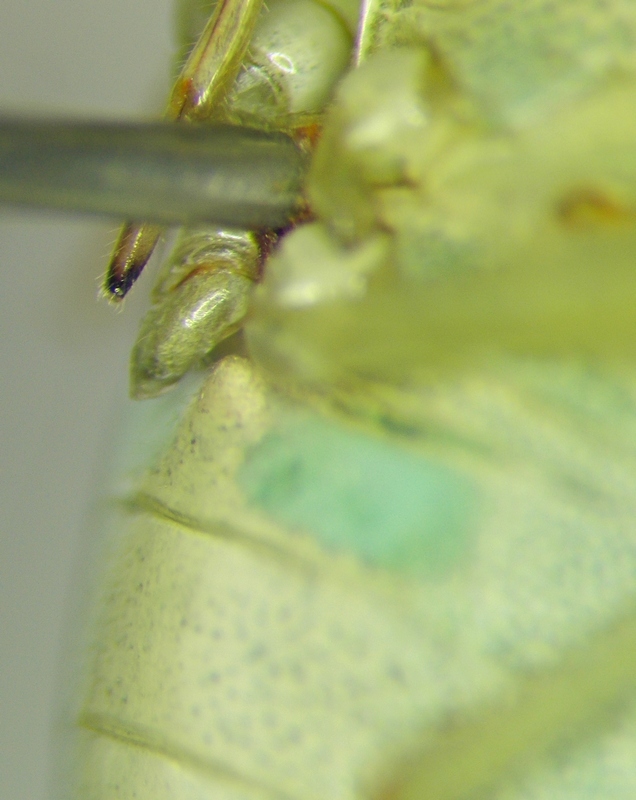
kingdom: Animalia
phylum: Arthropoda
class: Insecta
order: Hemiptera
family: Pentatomidae
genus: Acrosternum
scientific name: Acrosternum millierei
